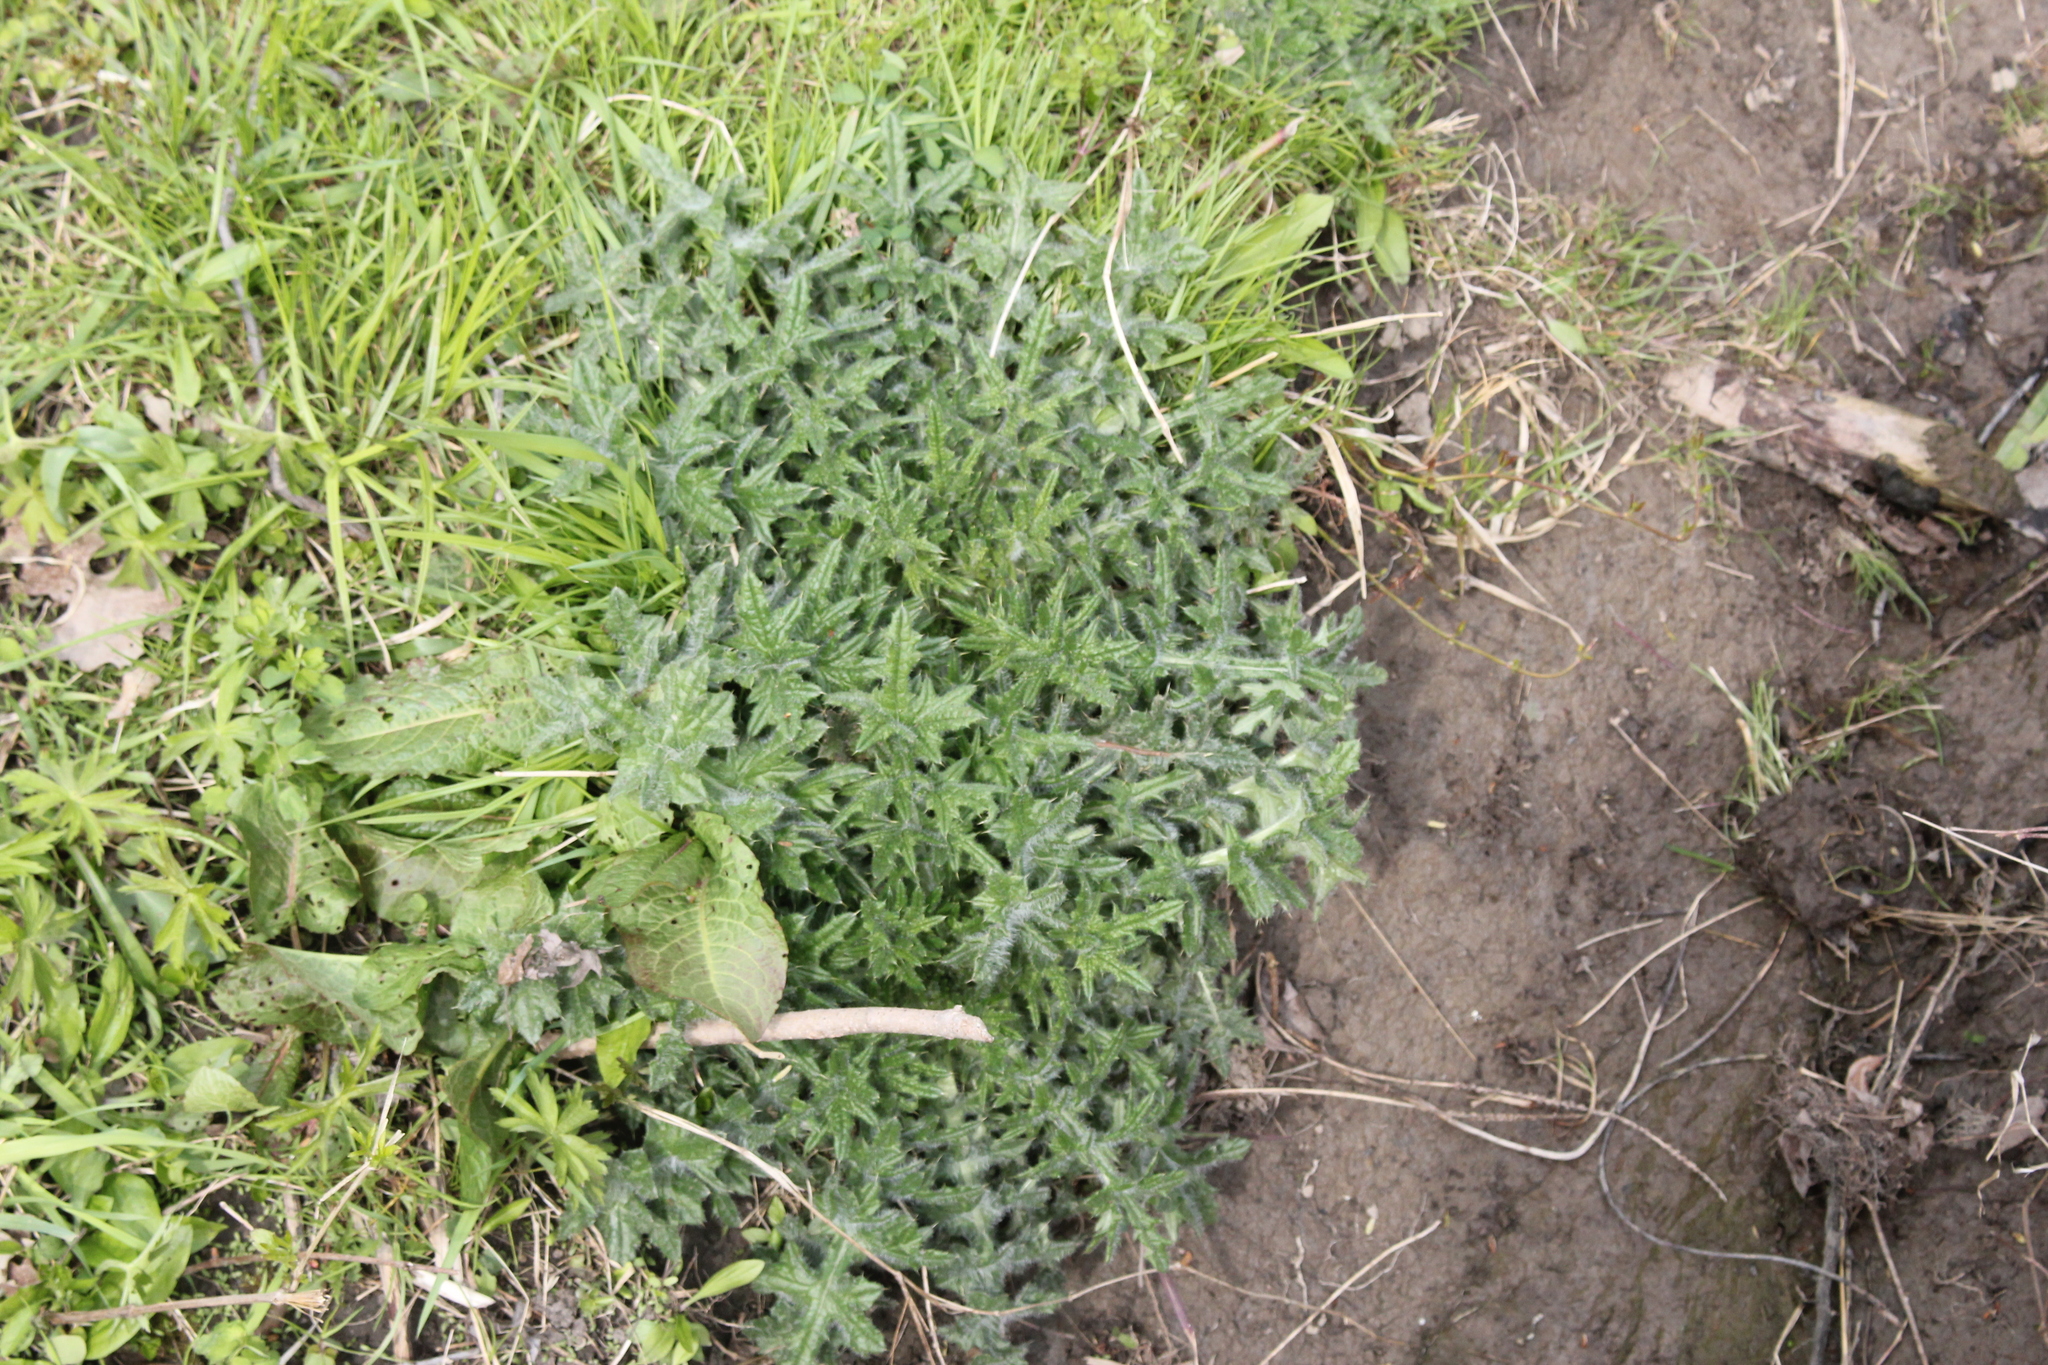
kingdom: Plantae
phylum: Tracheophyta
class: Magnoliopsida
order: Asterales
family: Asteraceae
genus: Cirsium
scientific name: Cirsium vulgare
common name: Bull thistle
